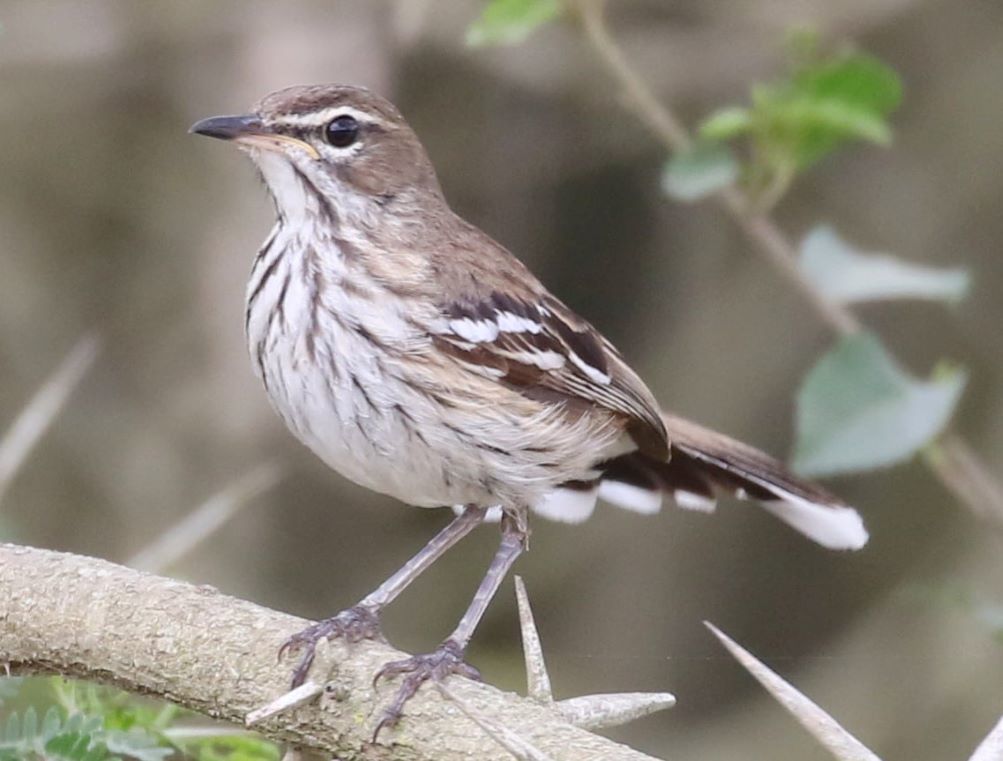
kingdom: Animalia
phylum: Chordata
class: Aves
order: Passeriformes
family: Muscicapidae
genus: Erythropygia
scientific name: Erythropygia leucophrys
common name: White-browed scrub robin
